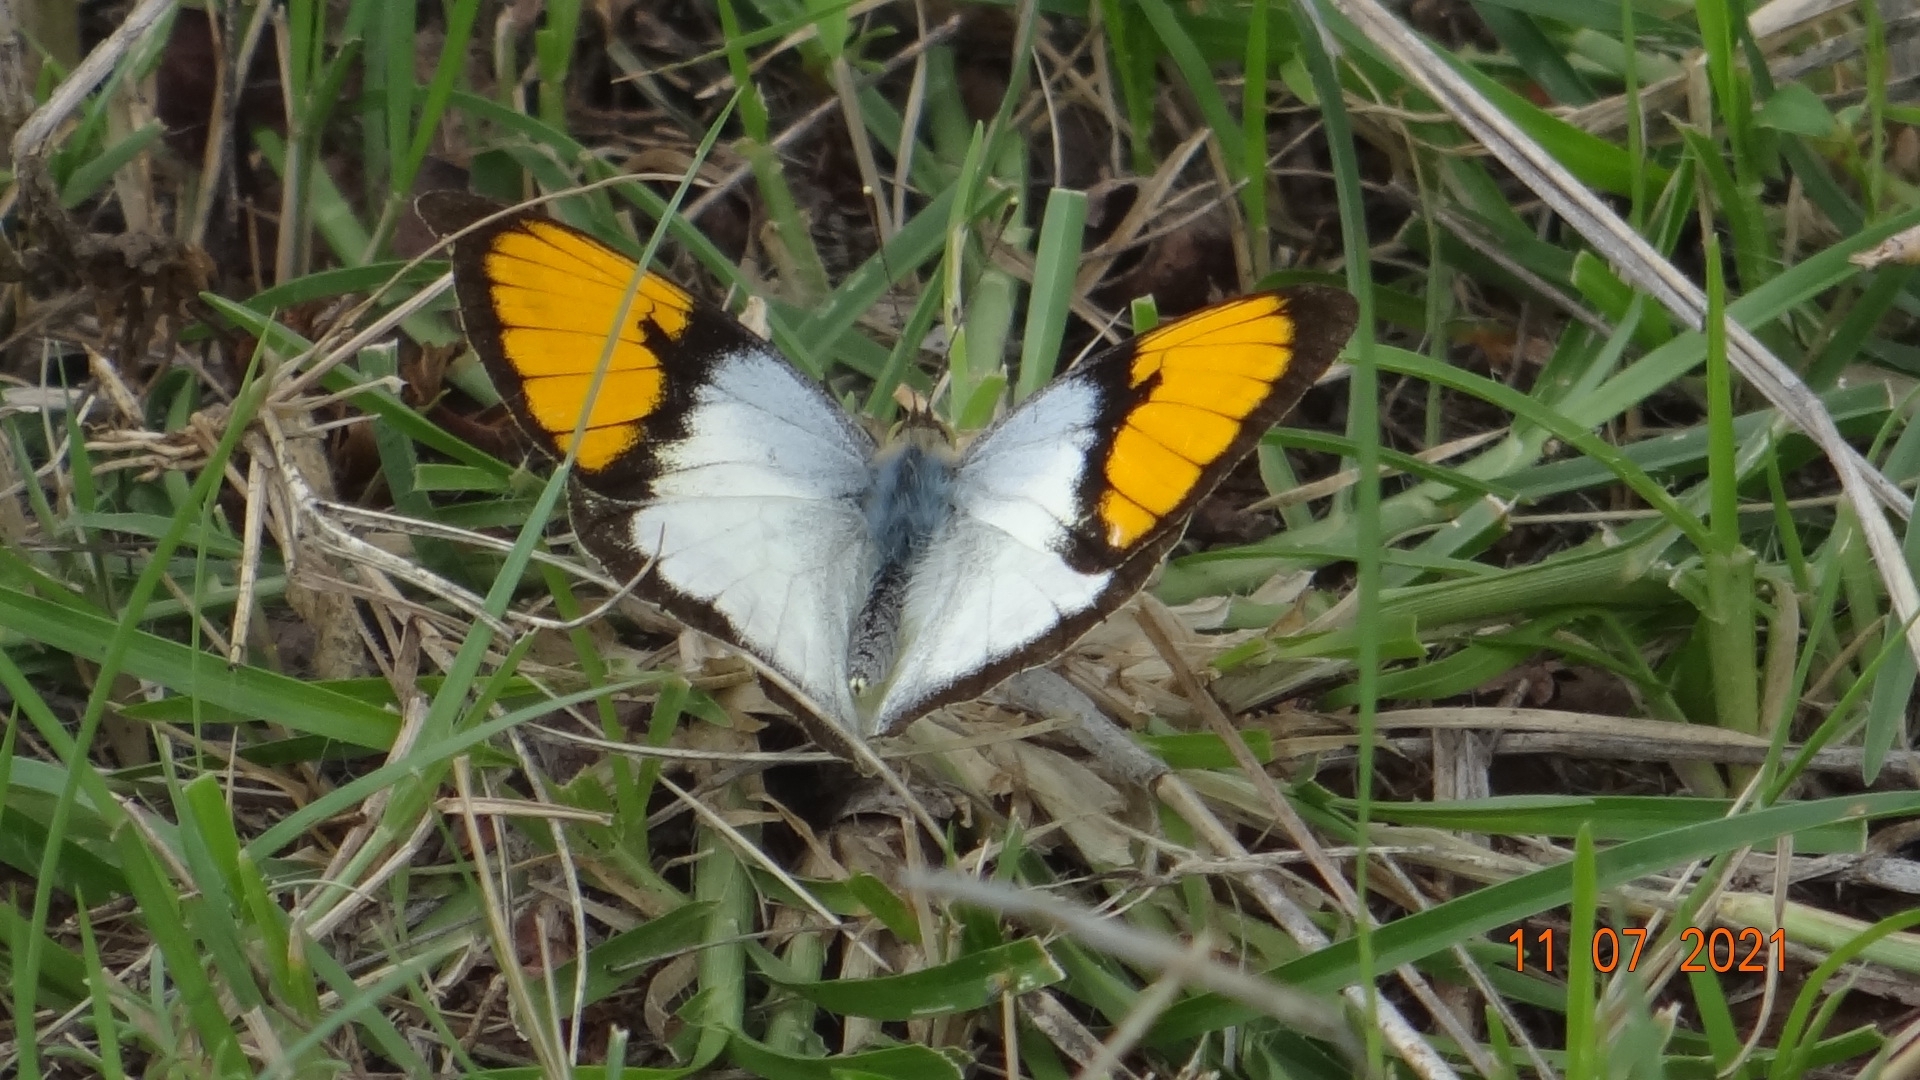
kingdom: Animalia
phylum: Arthropoda
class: Insecta
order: Lepidoptera
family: Pieridae
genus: Ixias
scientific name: Ixias marianne
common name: White orange tip
